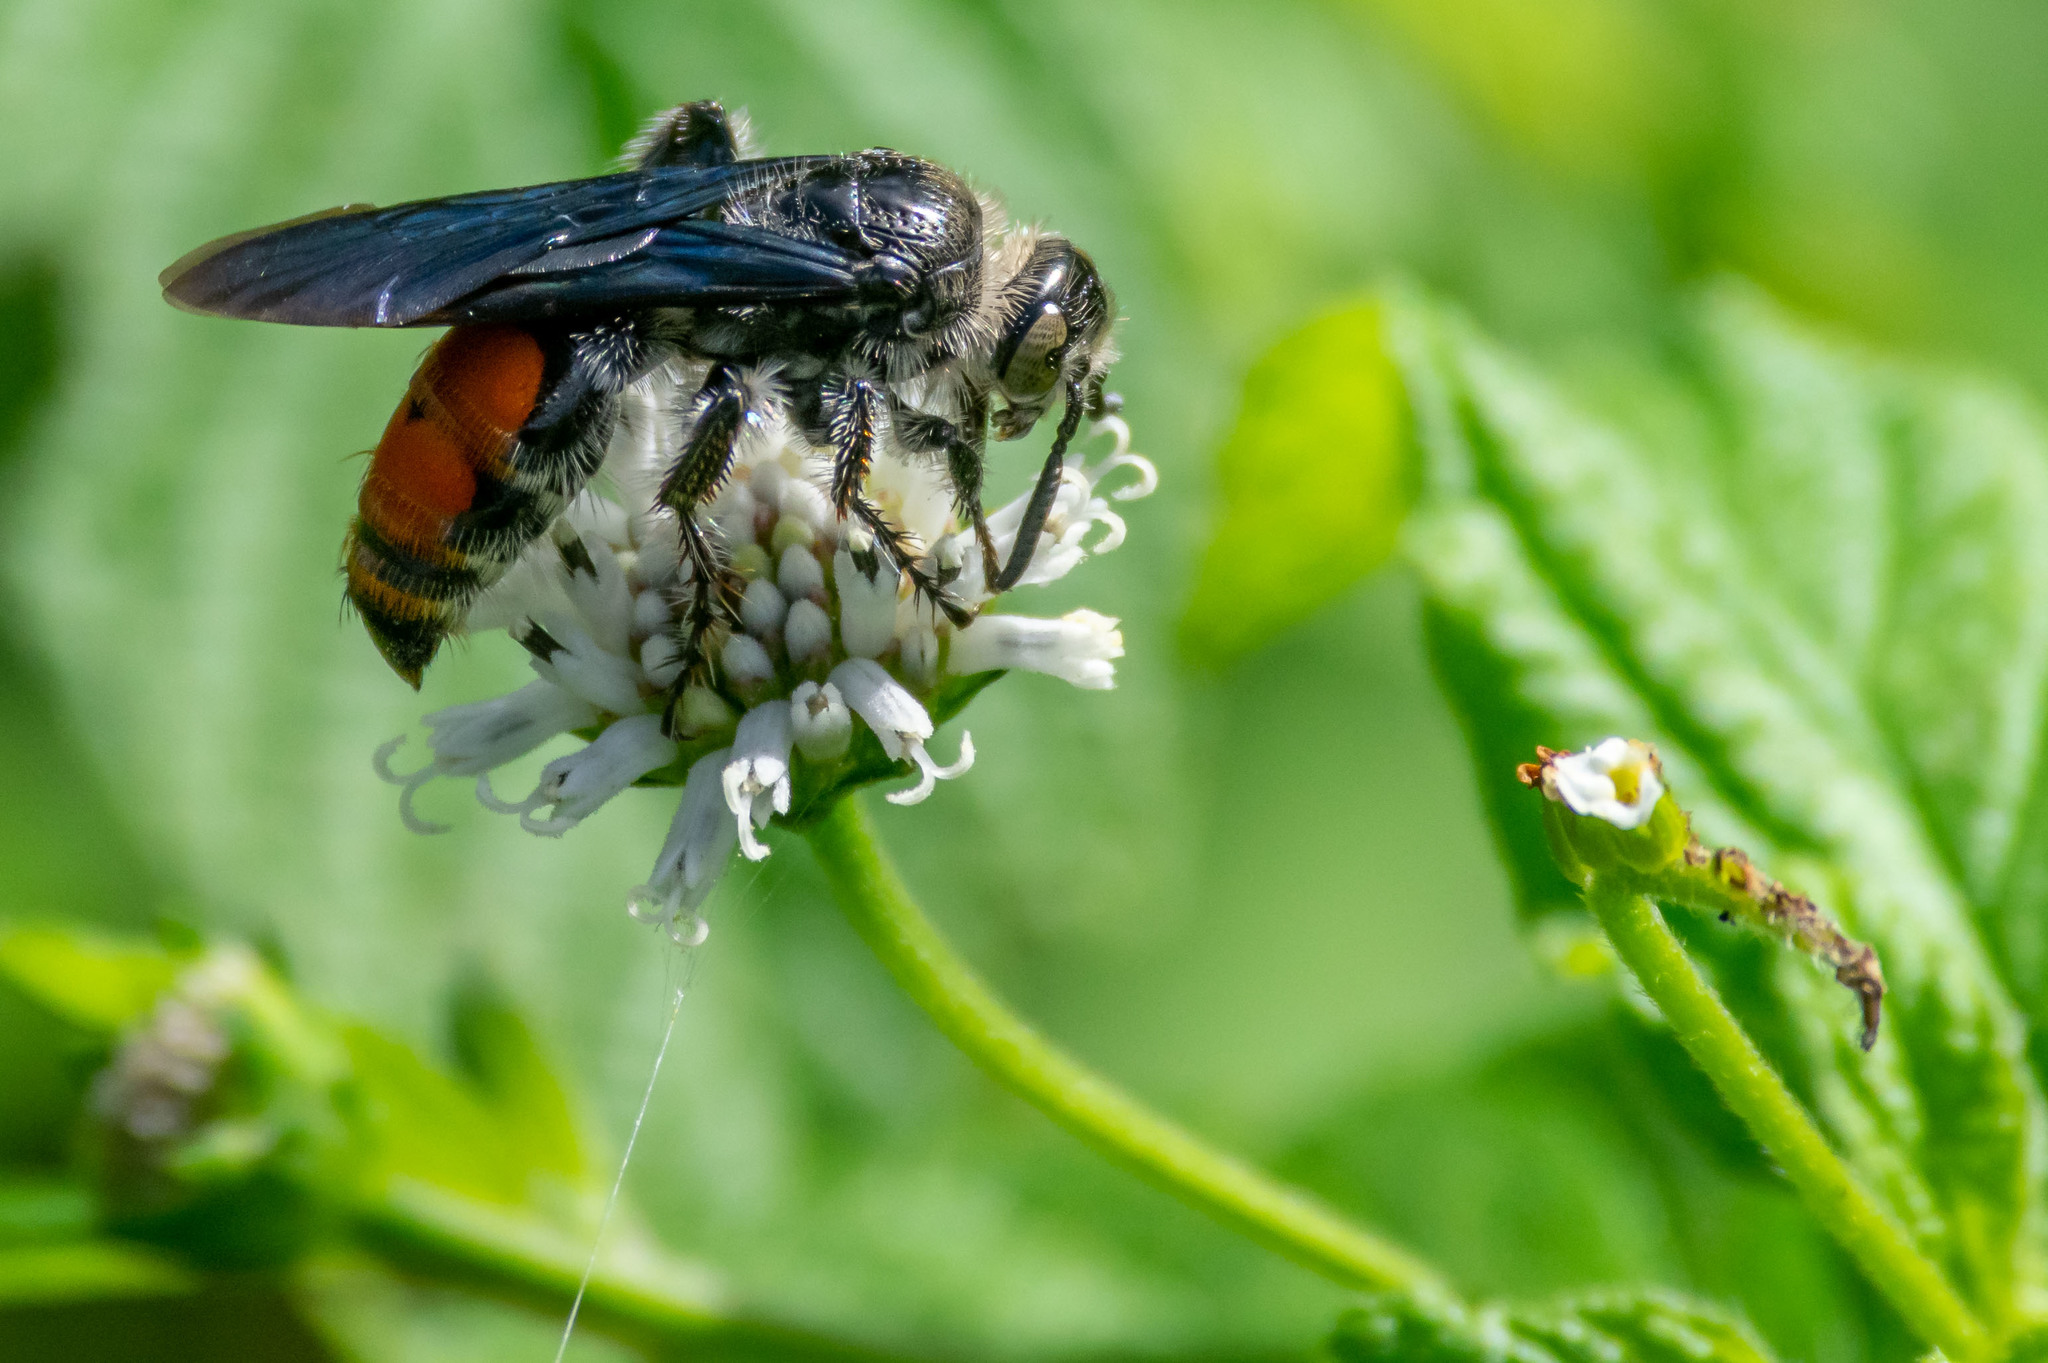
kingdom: Animalia
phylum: Arthropoda
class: Insecta
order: Hymenoptera
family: Scoliidae
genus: Dielis
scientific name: Dielis dorsata
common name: Scoliid wasp
